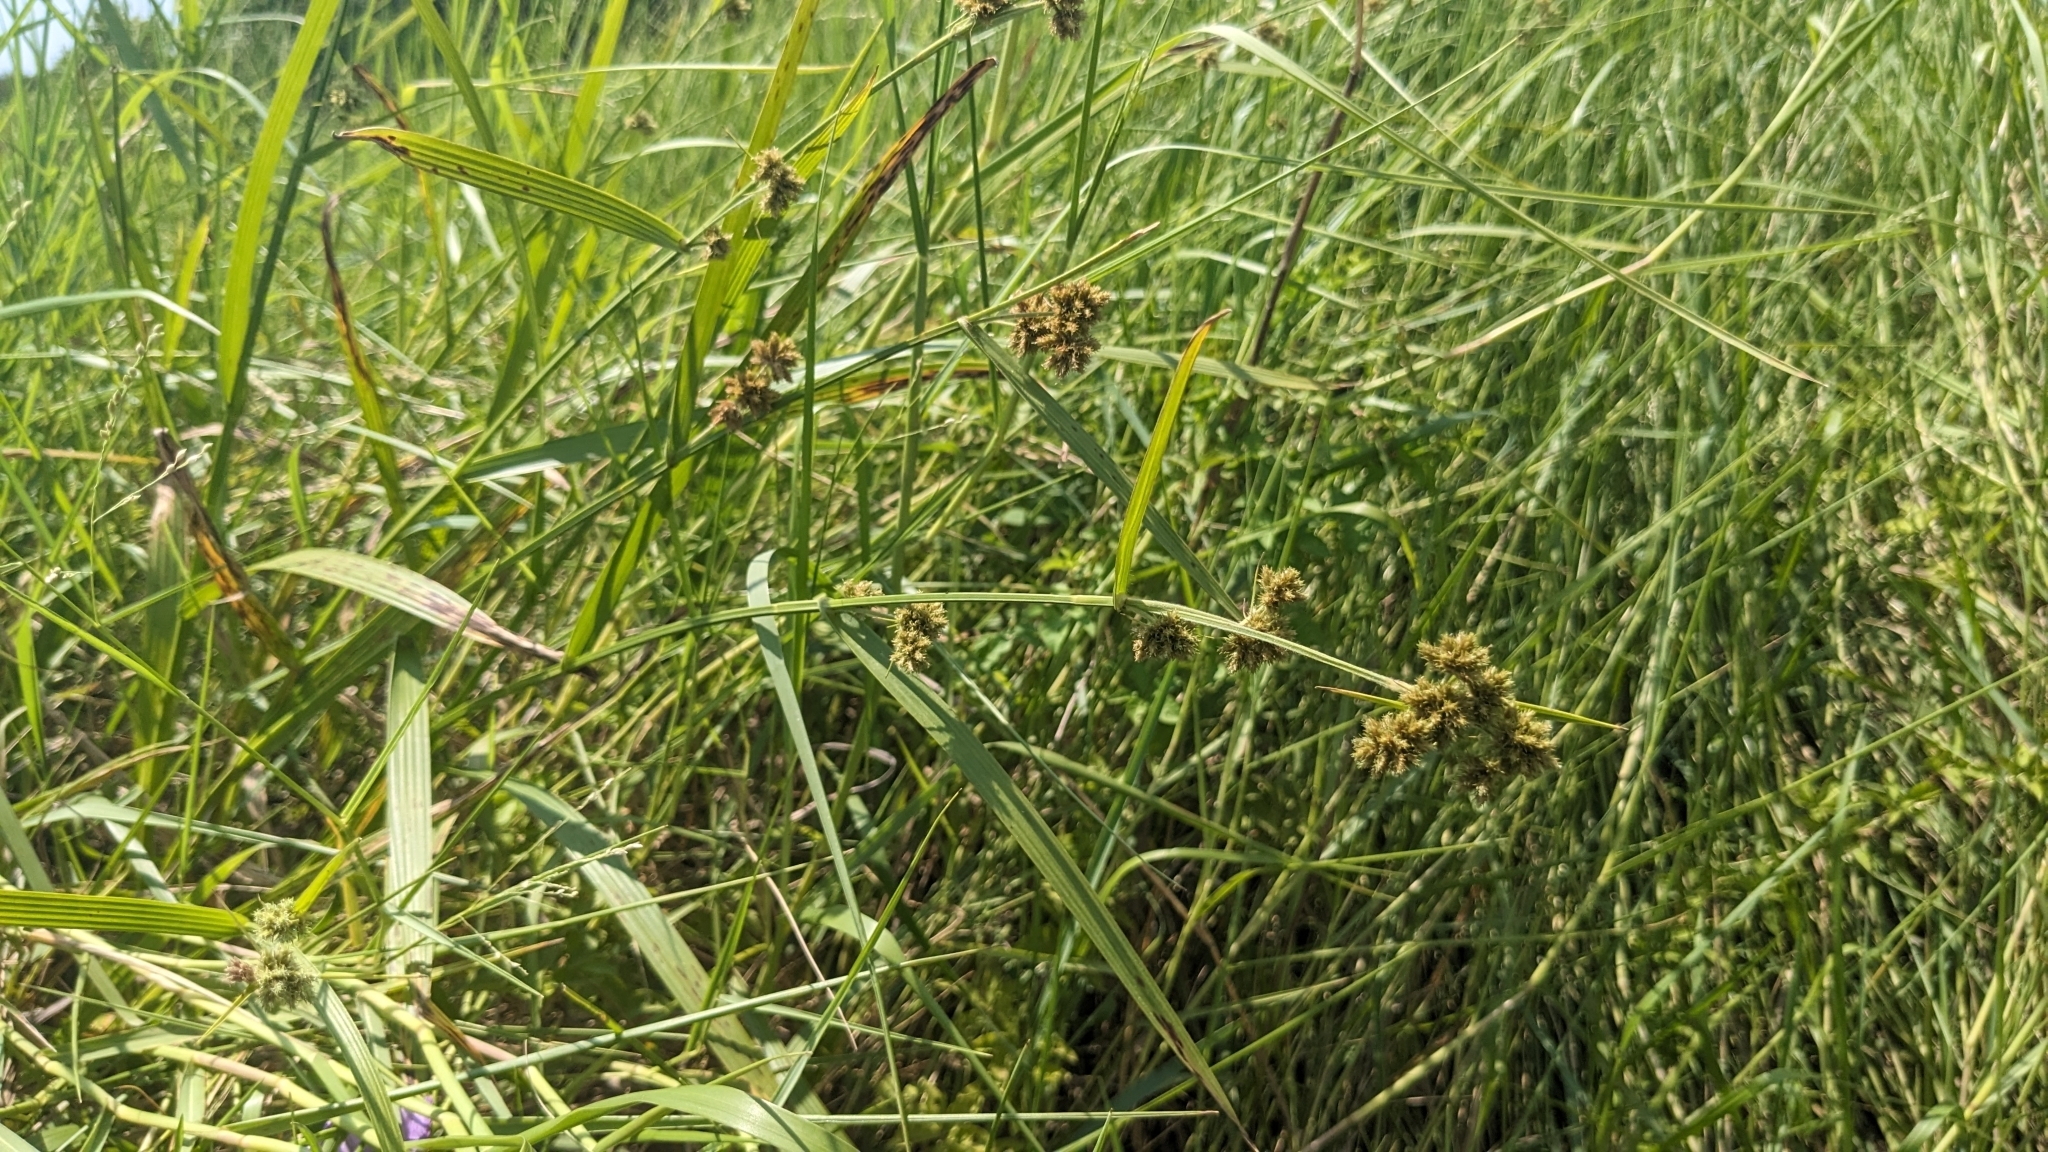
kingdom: Plantae
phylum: Tracheophyta
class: Liliopsida
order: Poales
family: Cyperaceae
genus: Fuirena
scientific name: Fuirena umbellata
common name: Yefen
